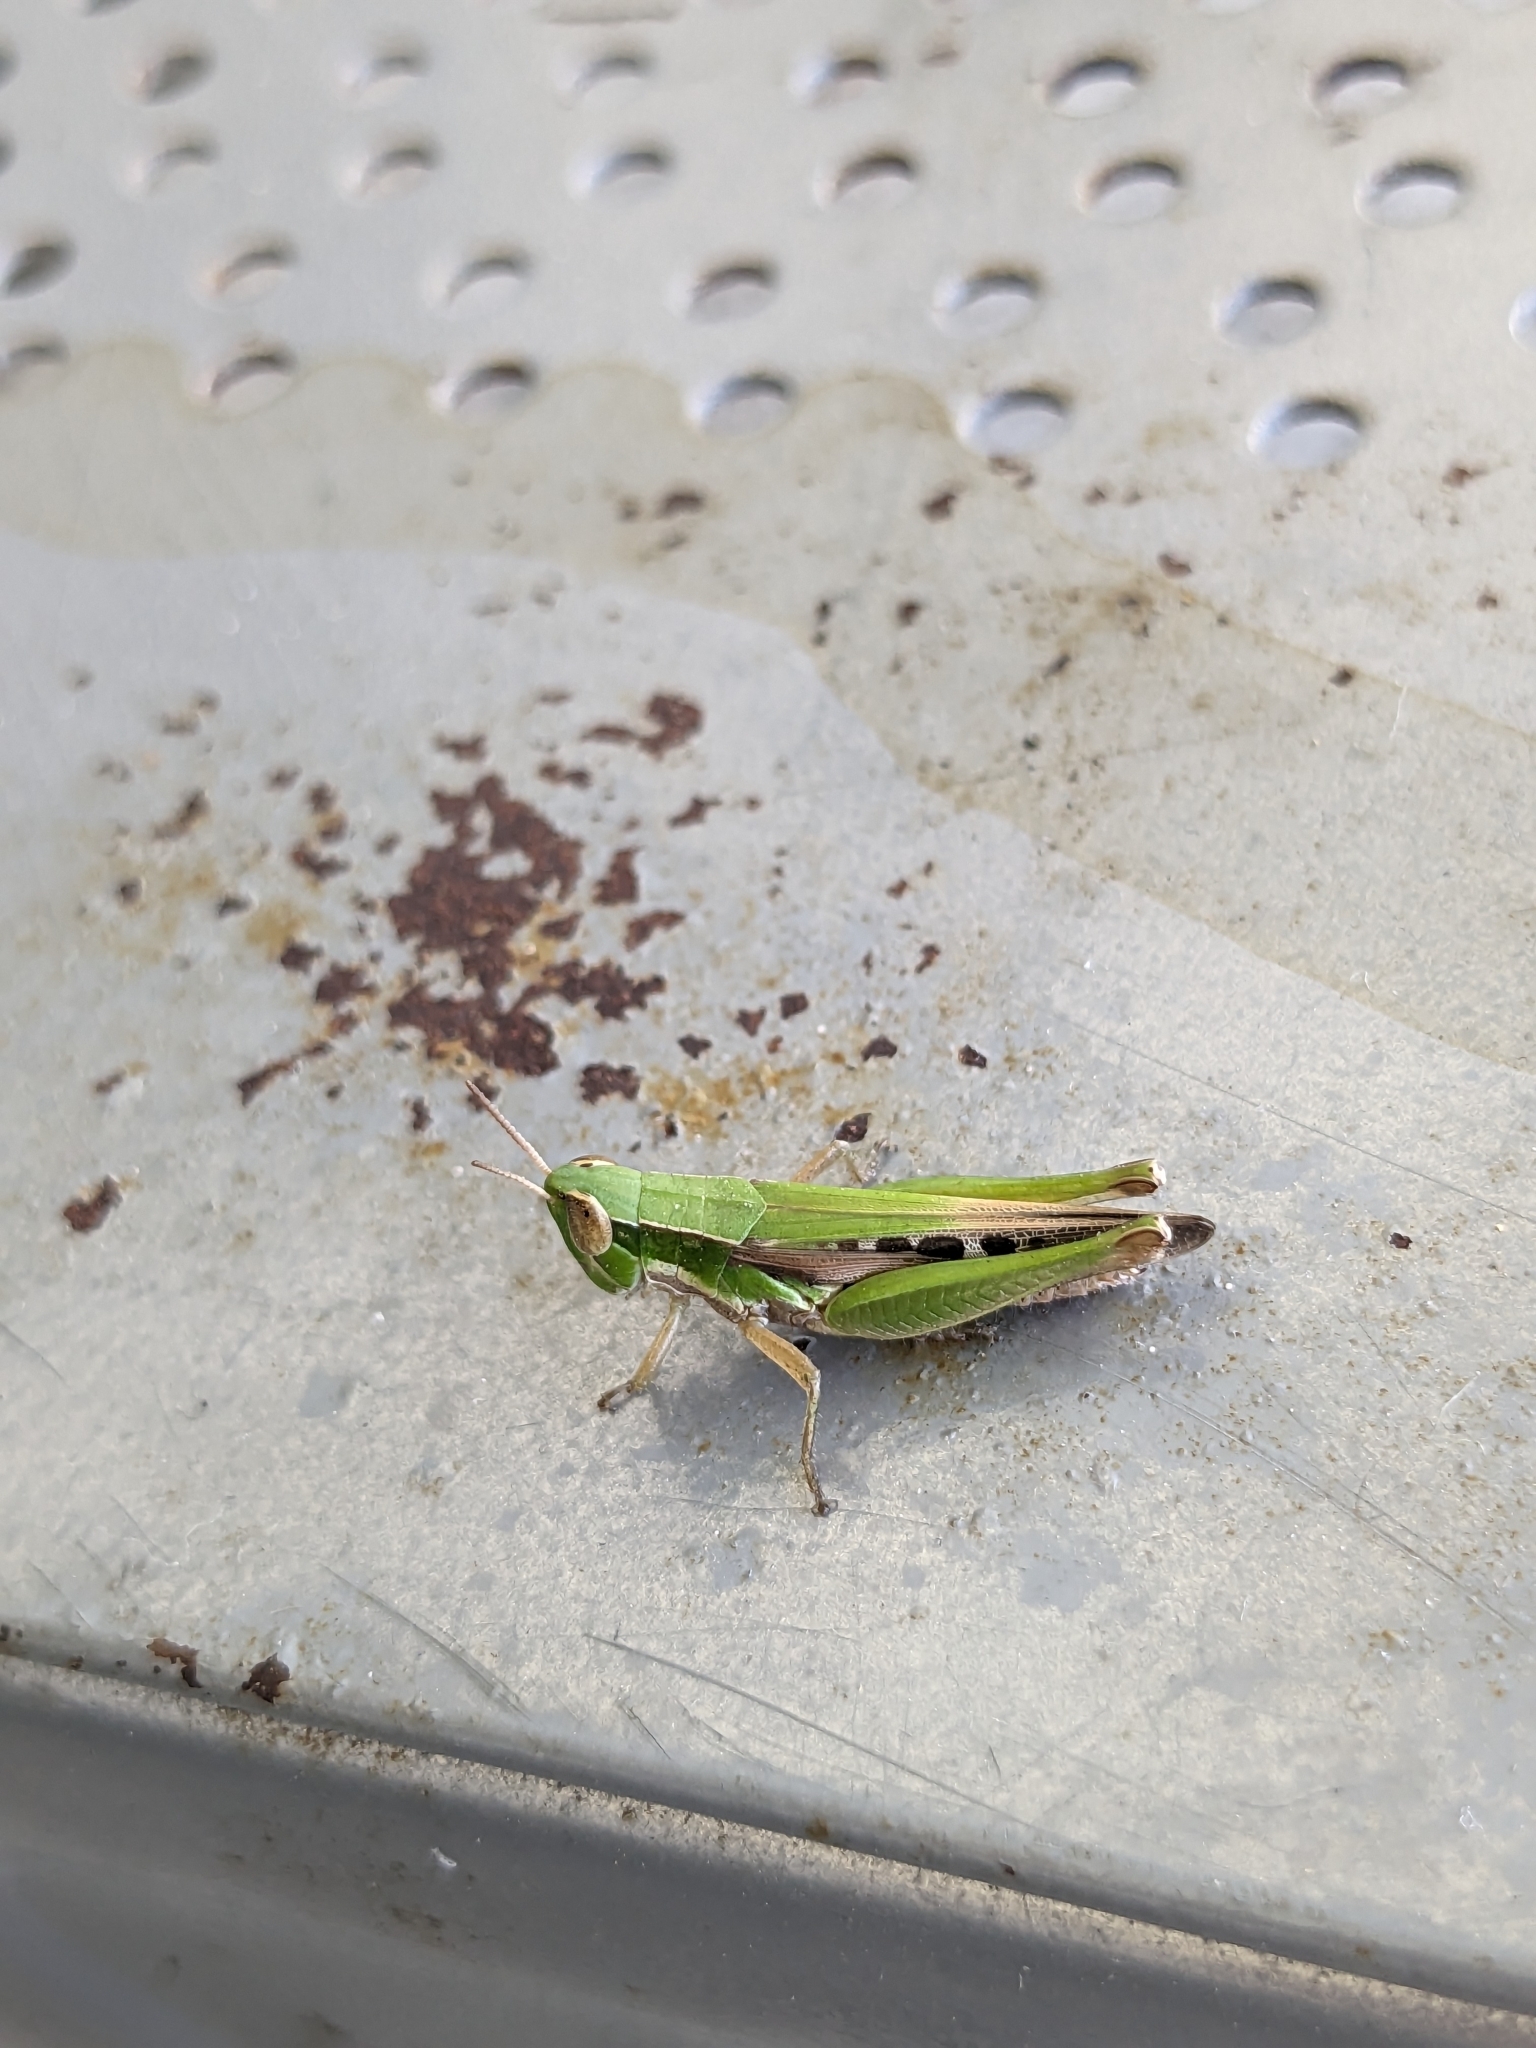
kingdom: Animalia
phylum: Arthropoda
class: Insecta
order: Orthoptera
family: Acrididae
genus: Spathosternum
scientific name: Spathosternum prasiniferum
